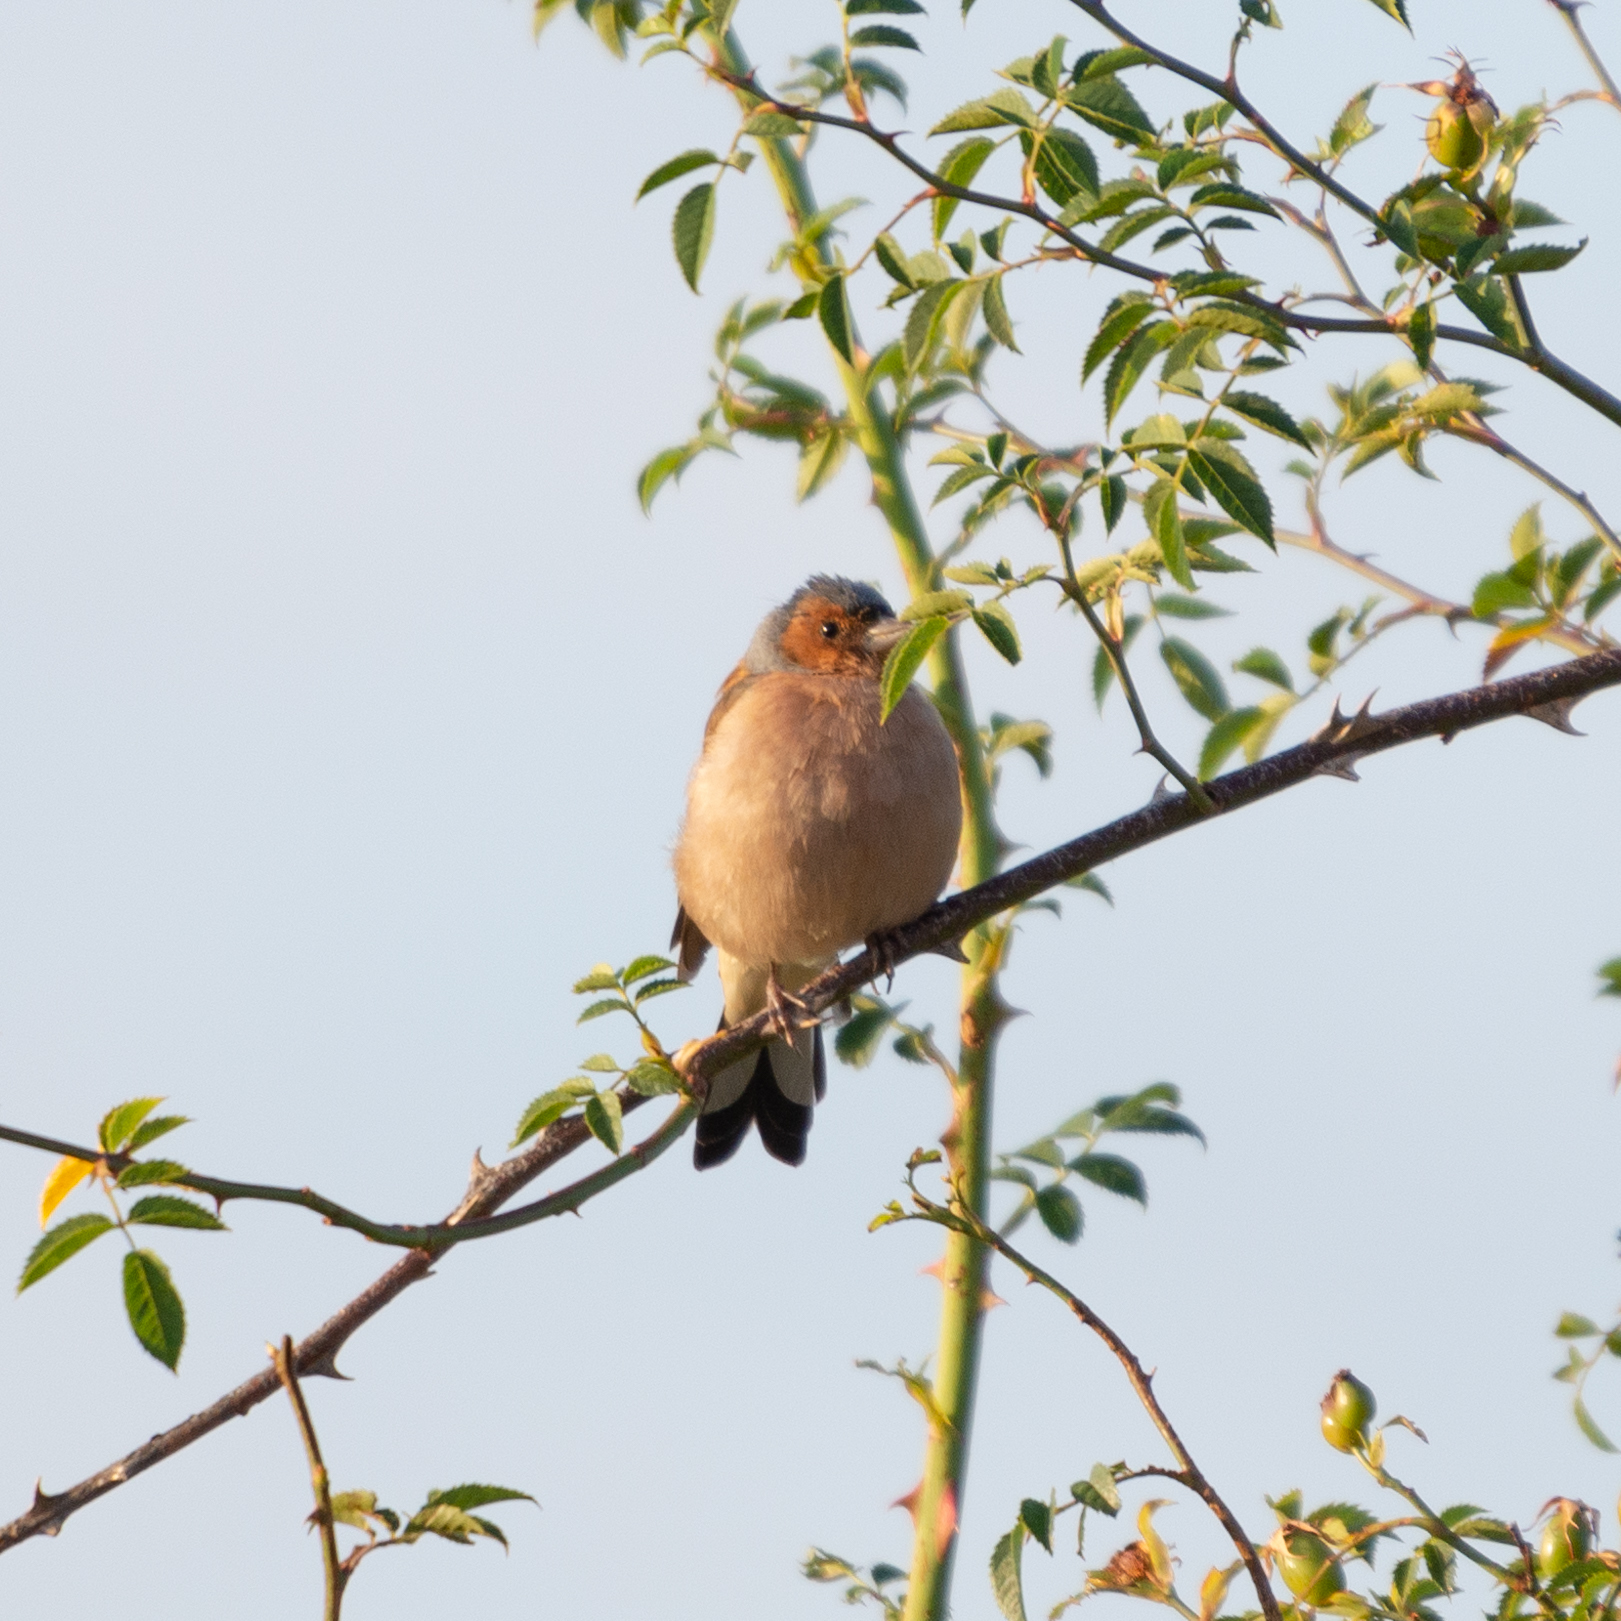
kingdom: Animalia
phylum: Chordata
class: Aves
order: Passeriformes
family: Fringillidae
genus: Fringilla
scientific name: Fringilla coelebs
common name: Common chaffinch
